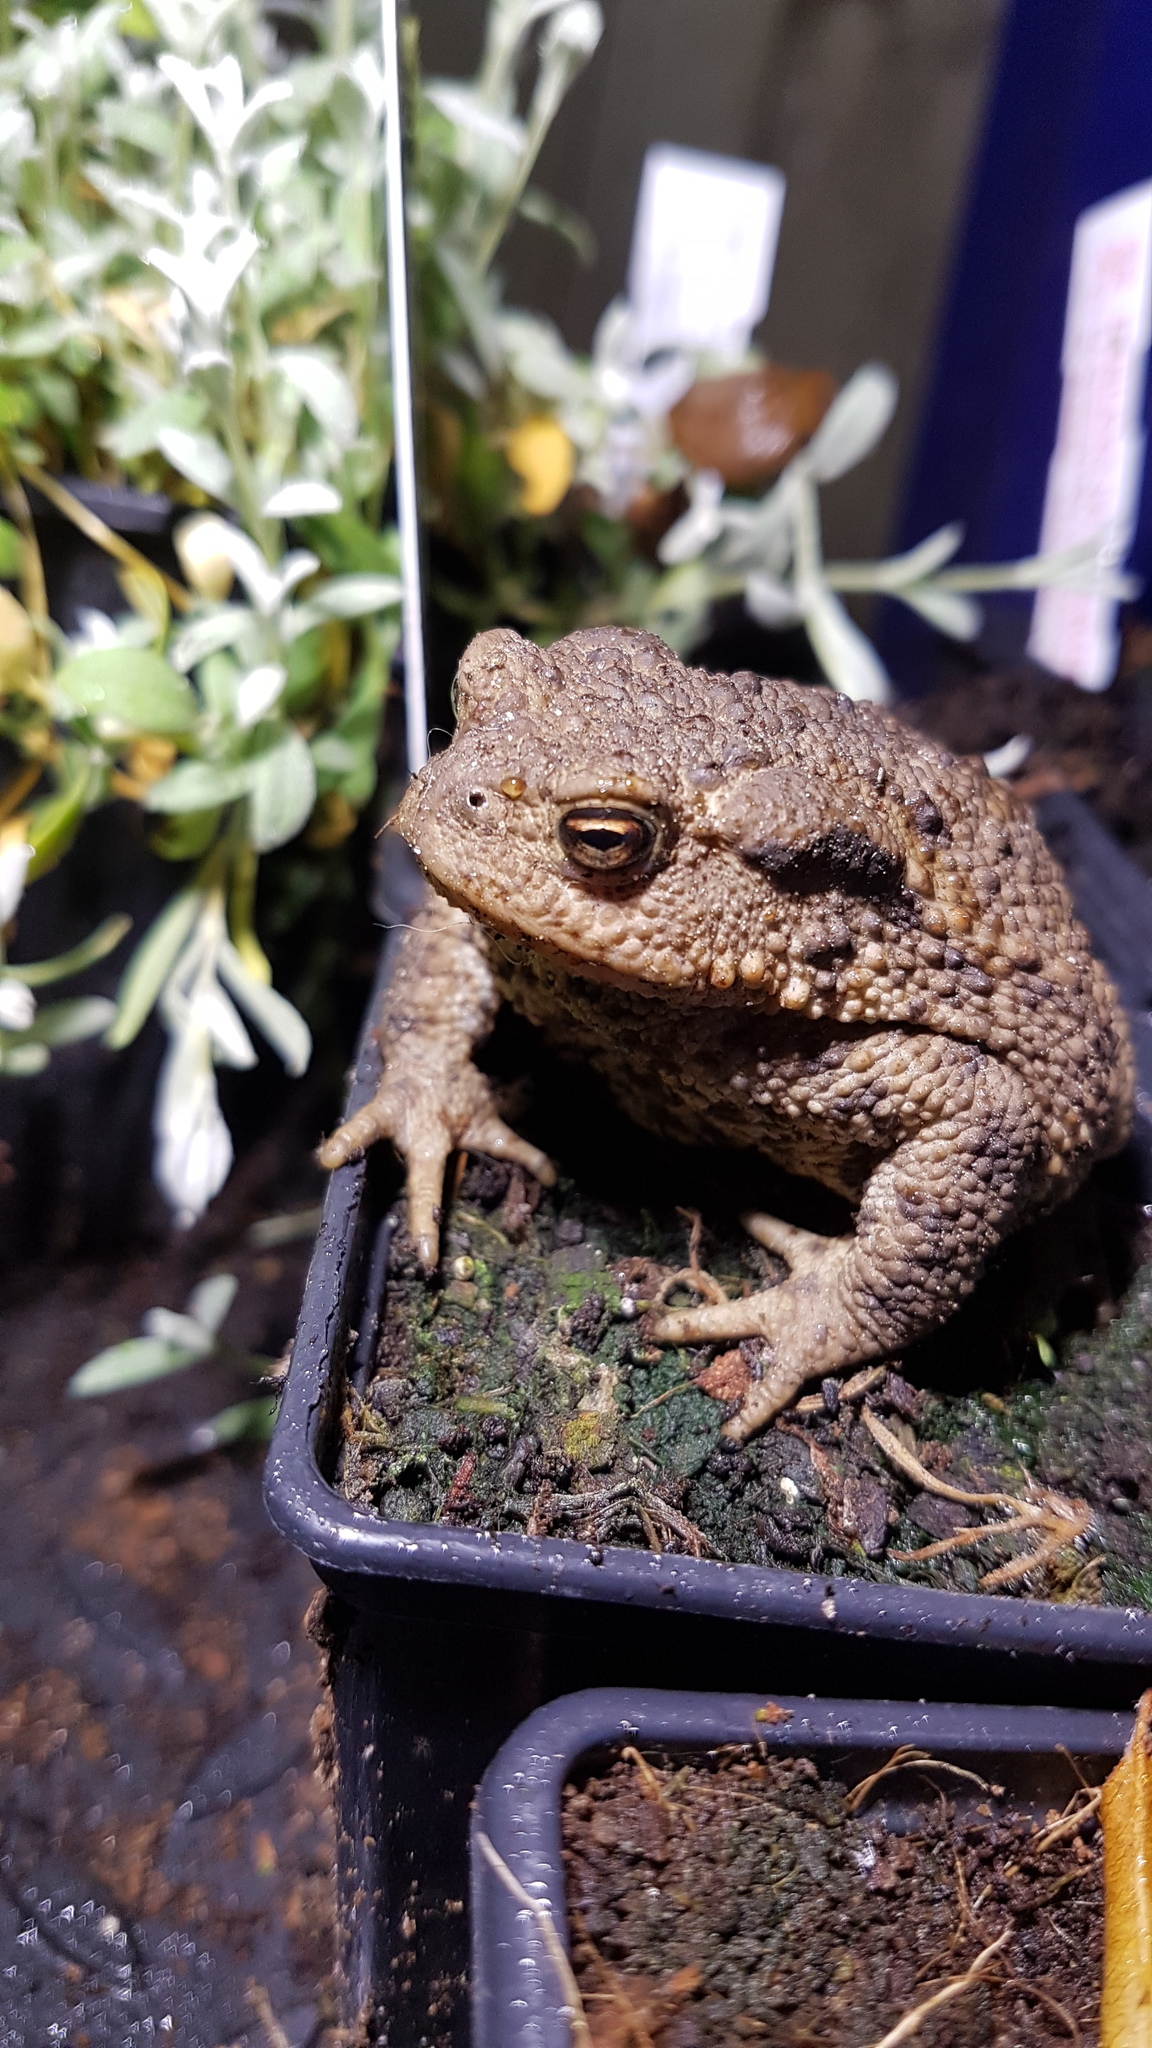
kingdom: Animalia
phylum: Chordata
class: Amphibia
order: Anura
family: Bufonidae
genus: Bufo
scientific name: Bufo bufo
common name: Common toad
